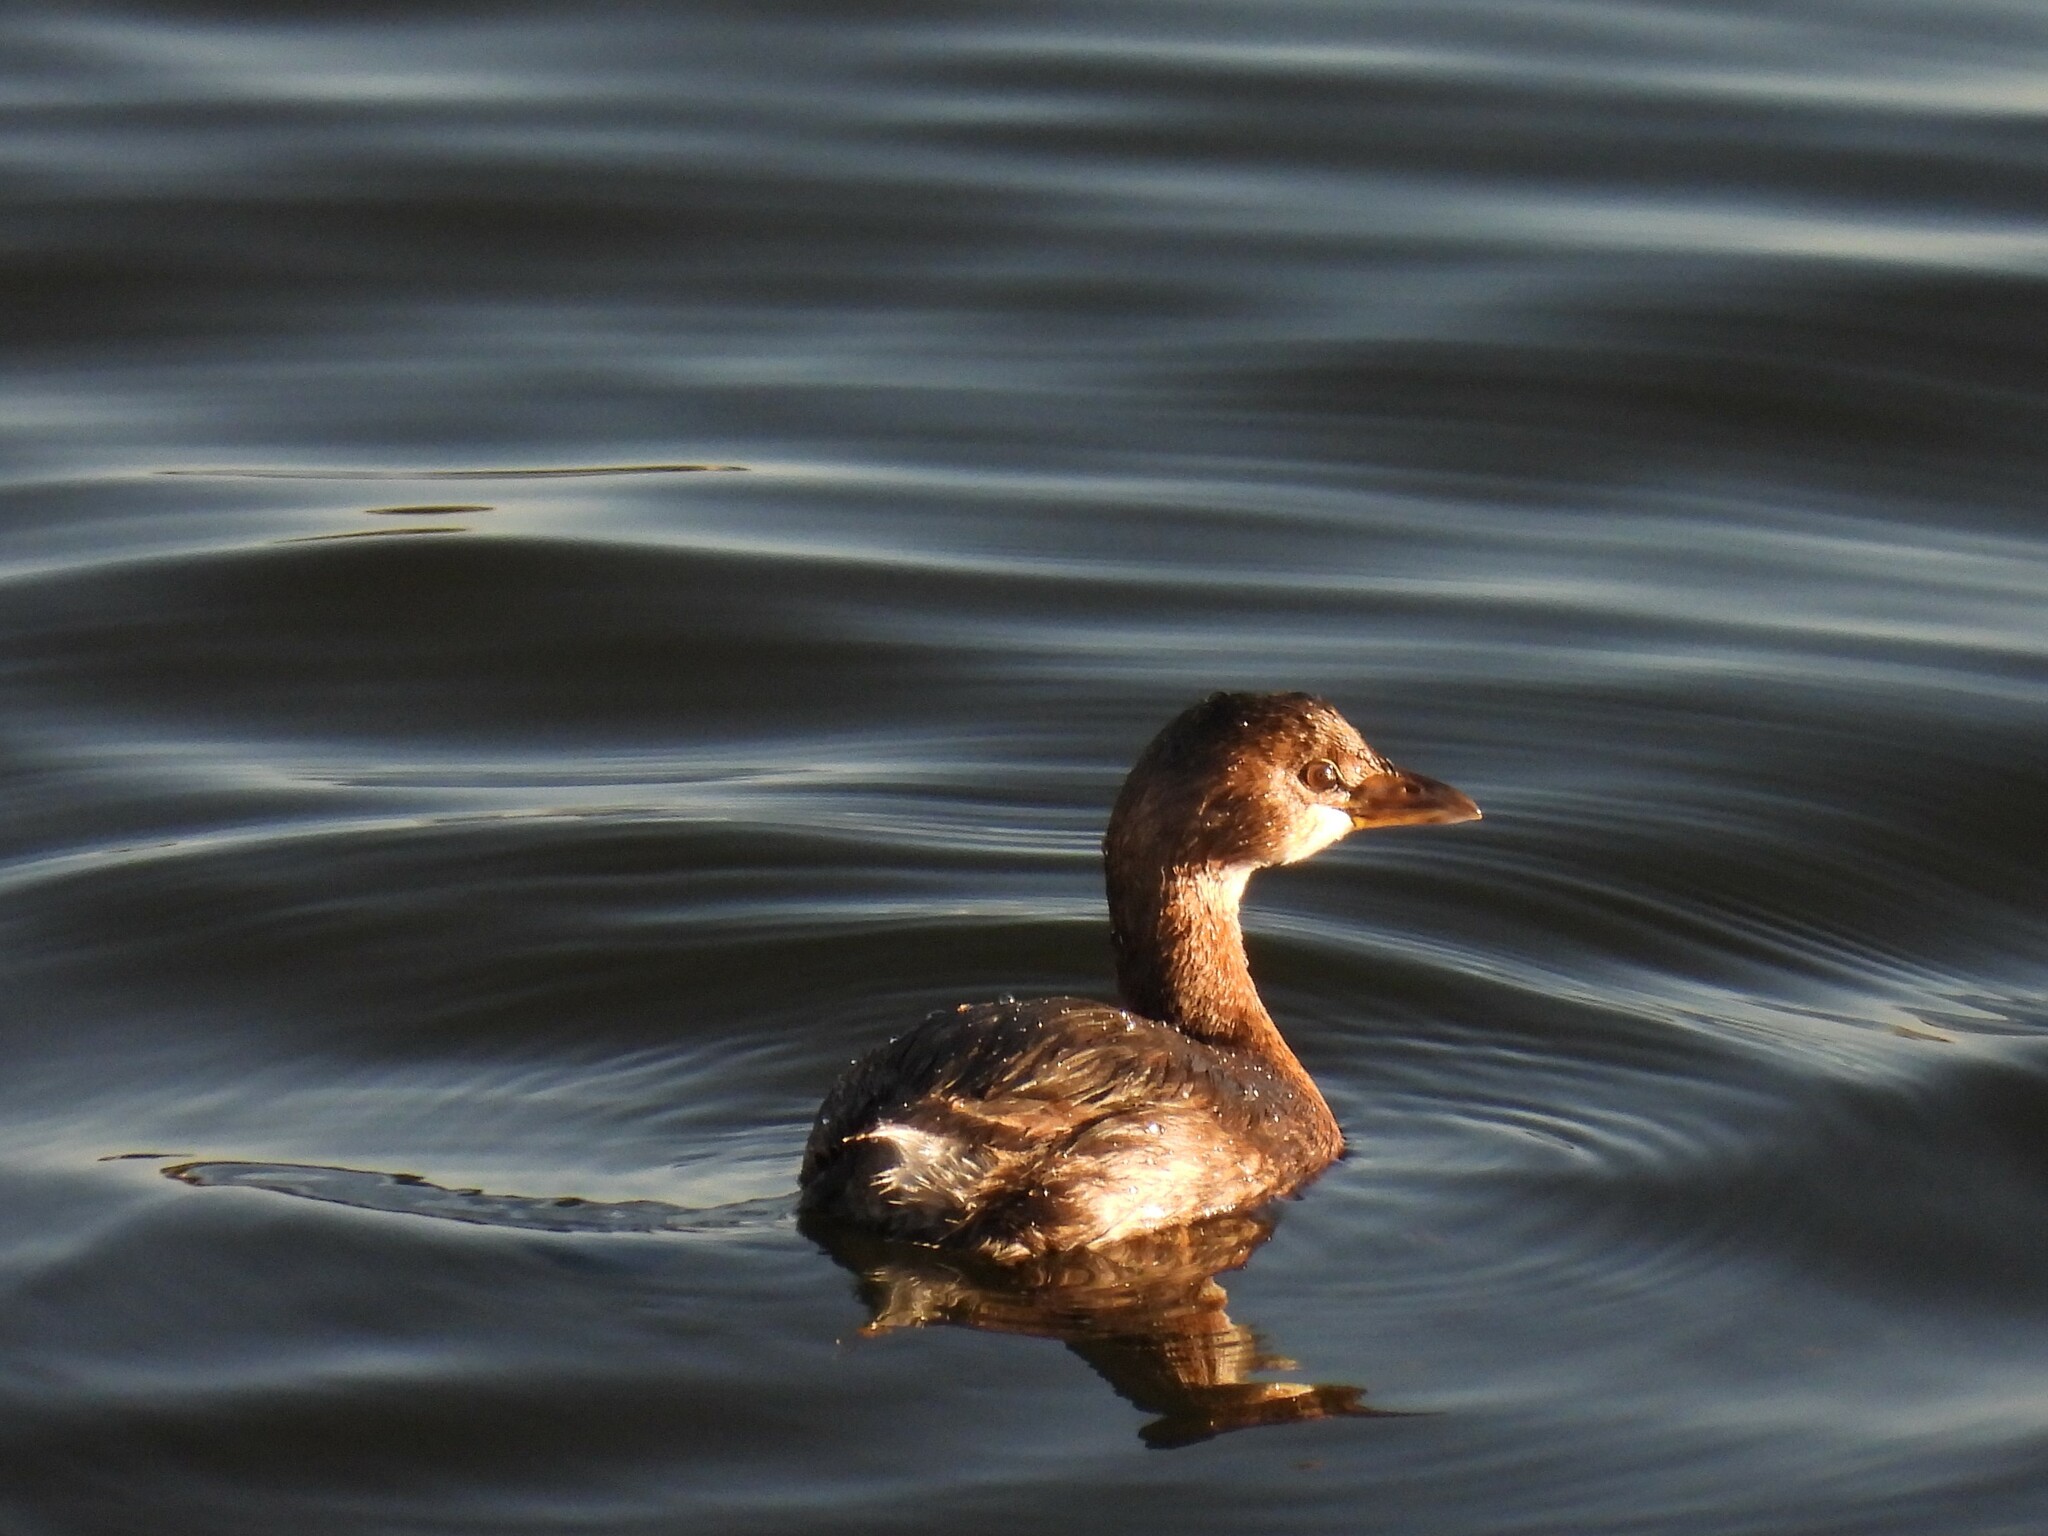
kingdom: Animalia
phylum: Chordata
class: Aves
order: Podicipediformes
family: Podicipedidae
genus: Podilymbus
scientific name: Podilymbus podiceps
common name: Pied-billed grebe
